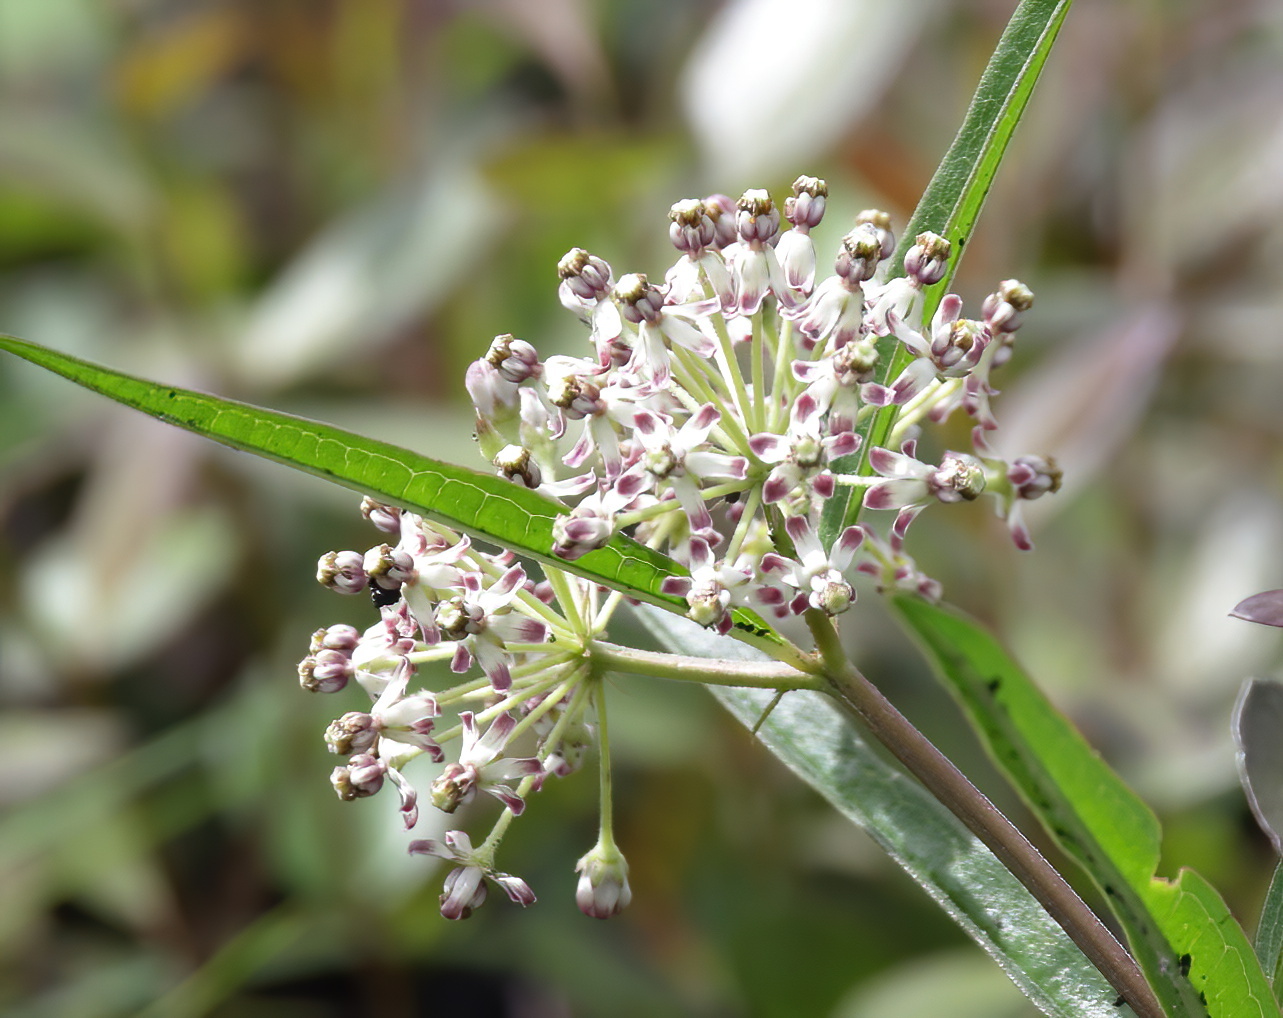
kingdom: Plantae
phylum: Tracheophyta
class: Magnoliopsida
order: Gentianales
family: Apocynaceae
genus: Asclepias
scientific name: Asclepias longifolia
